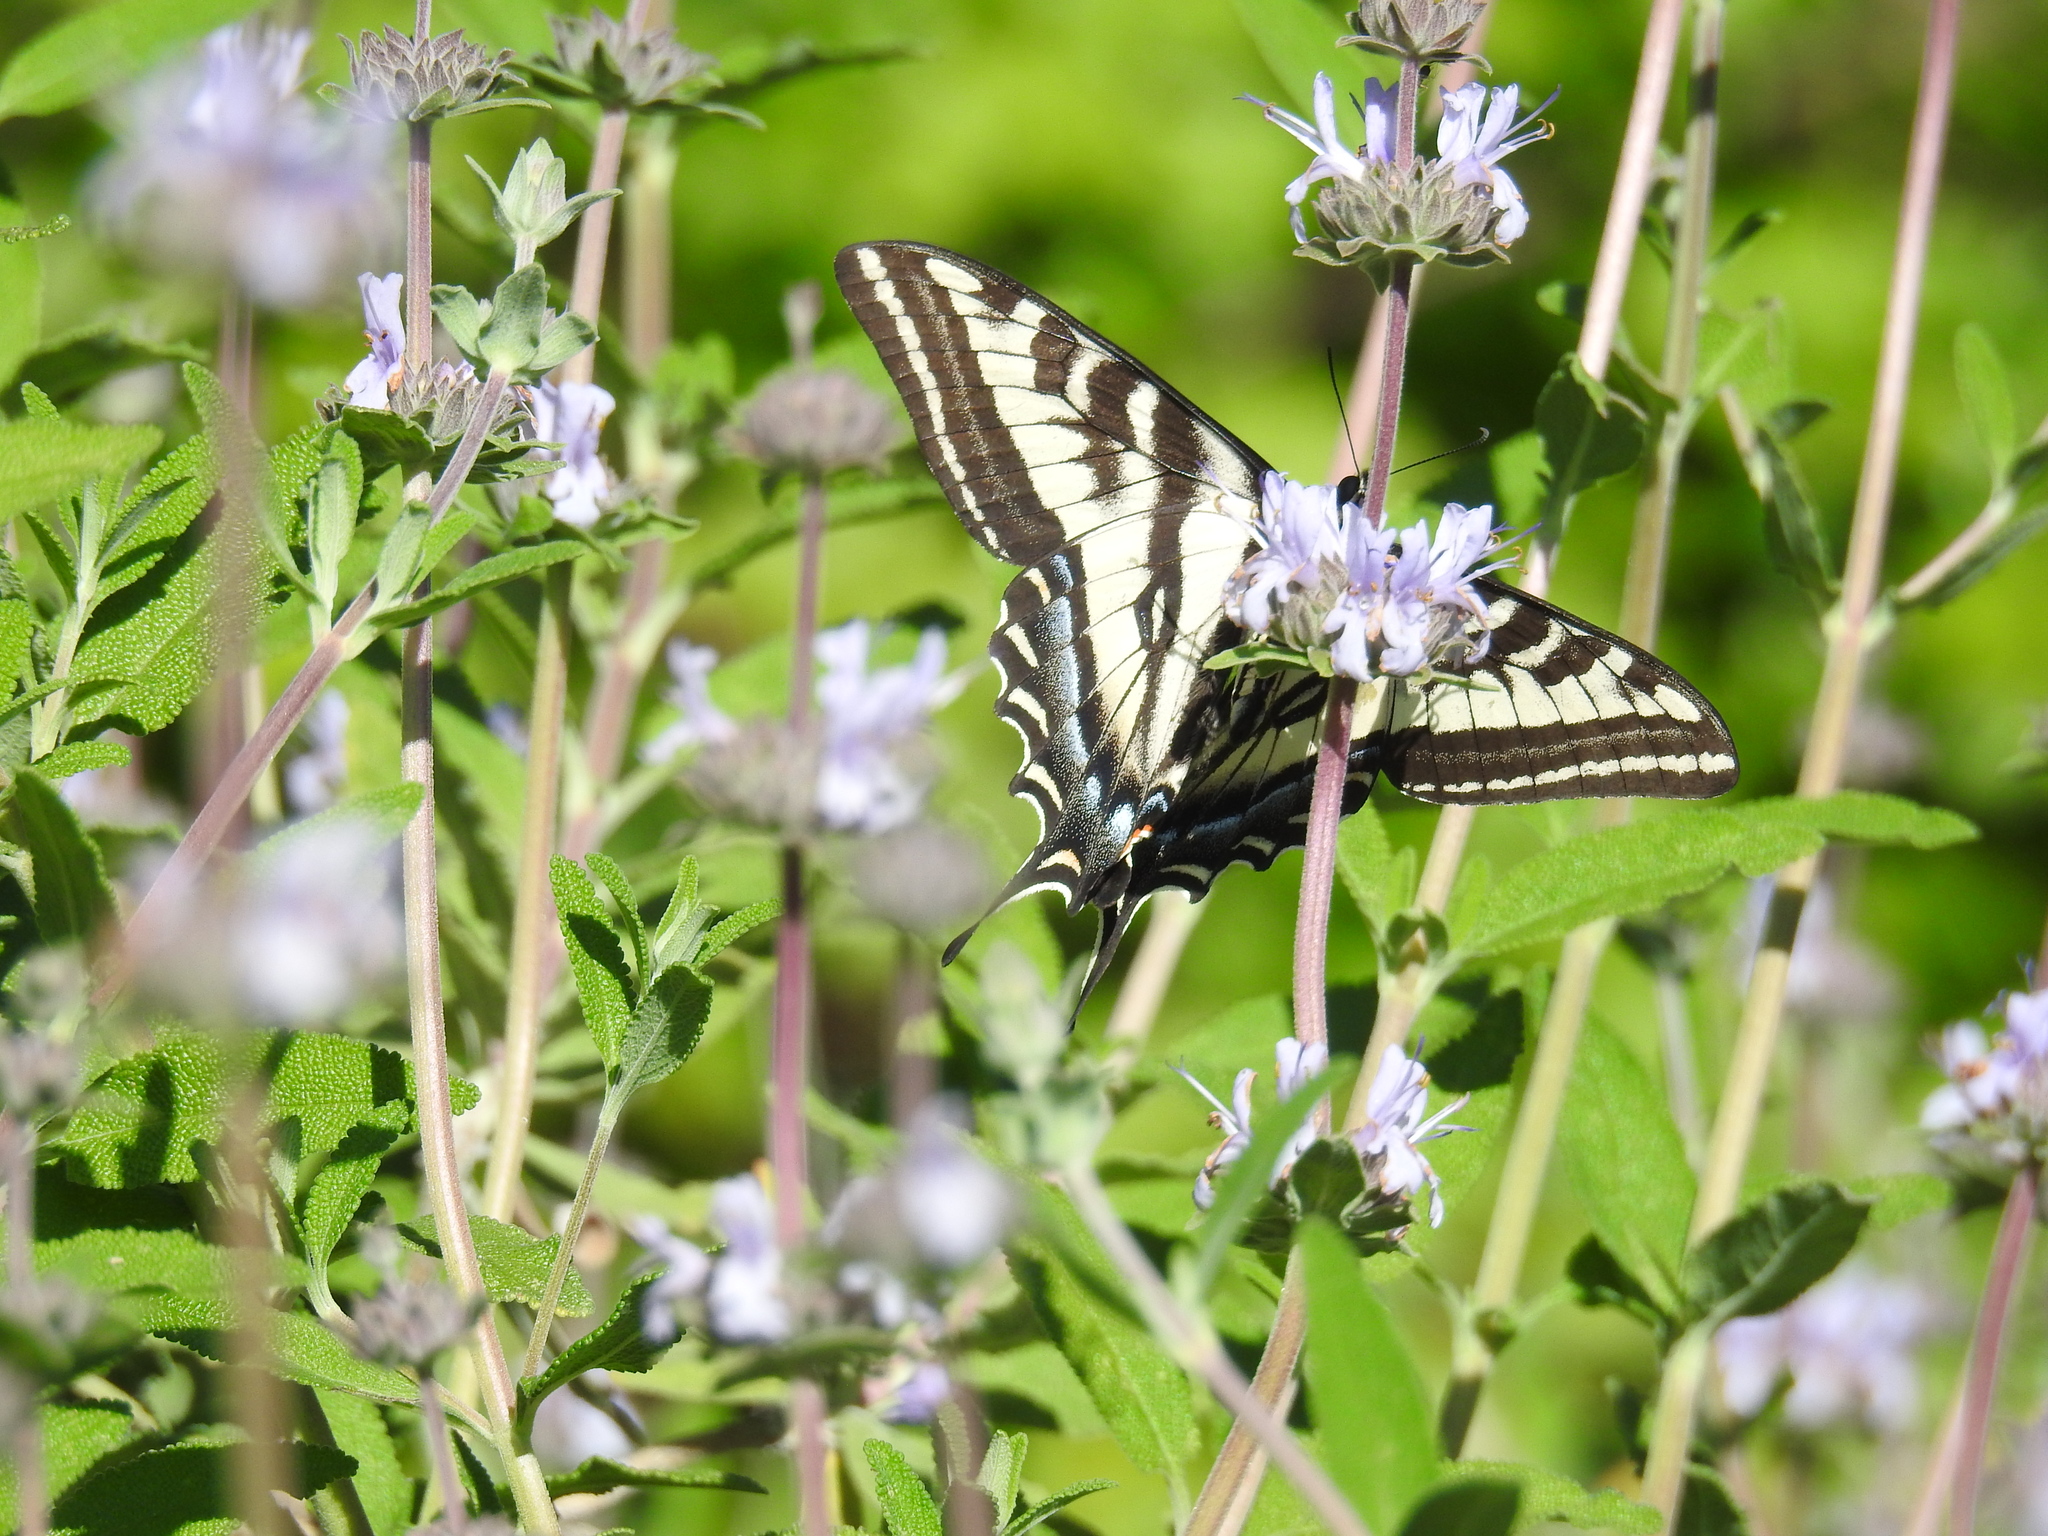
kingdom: Animalia
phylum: Arthropoda
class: Insecta
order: Lepidoptera
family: Papilionidae
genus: Papilio
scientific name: Papilio eurymedon
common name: Pale tiger swallowtail
